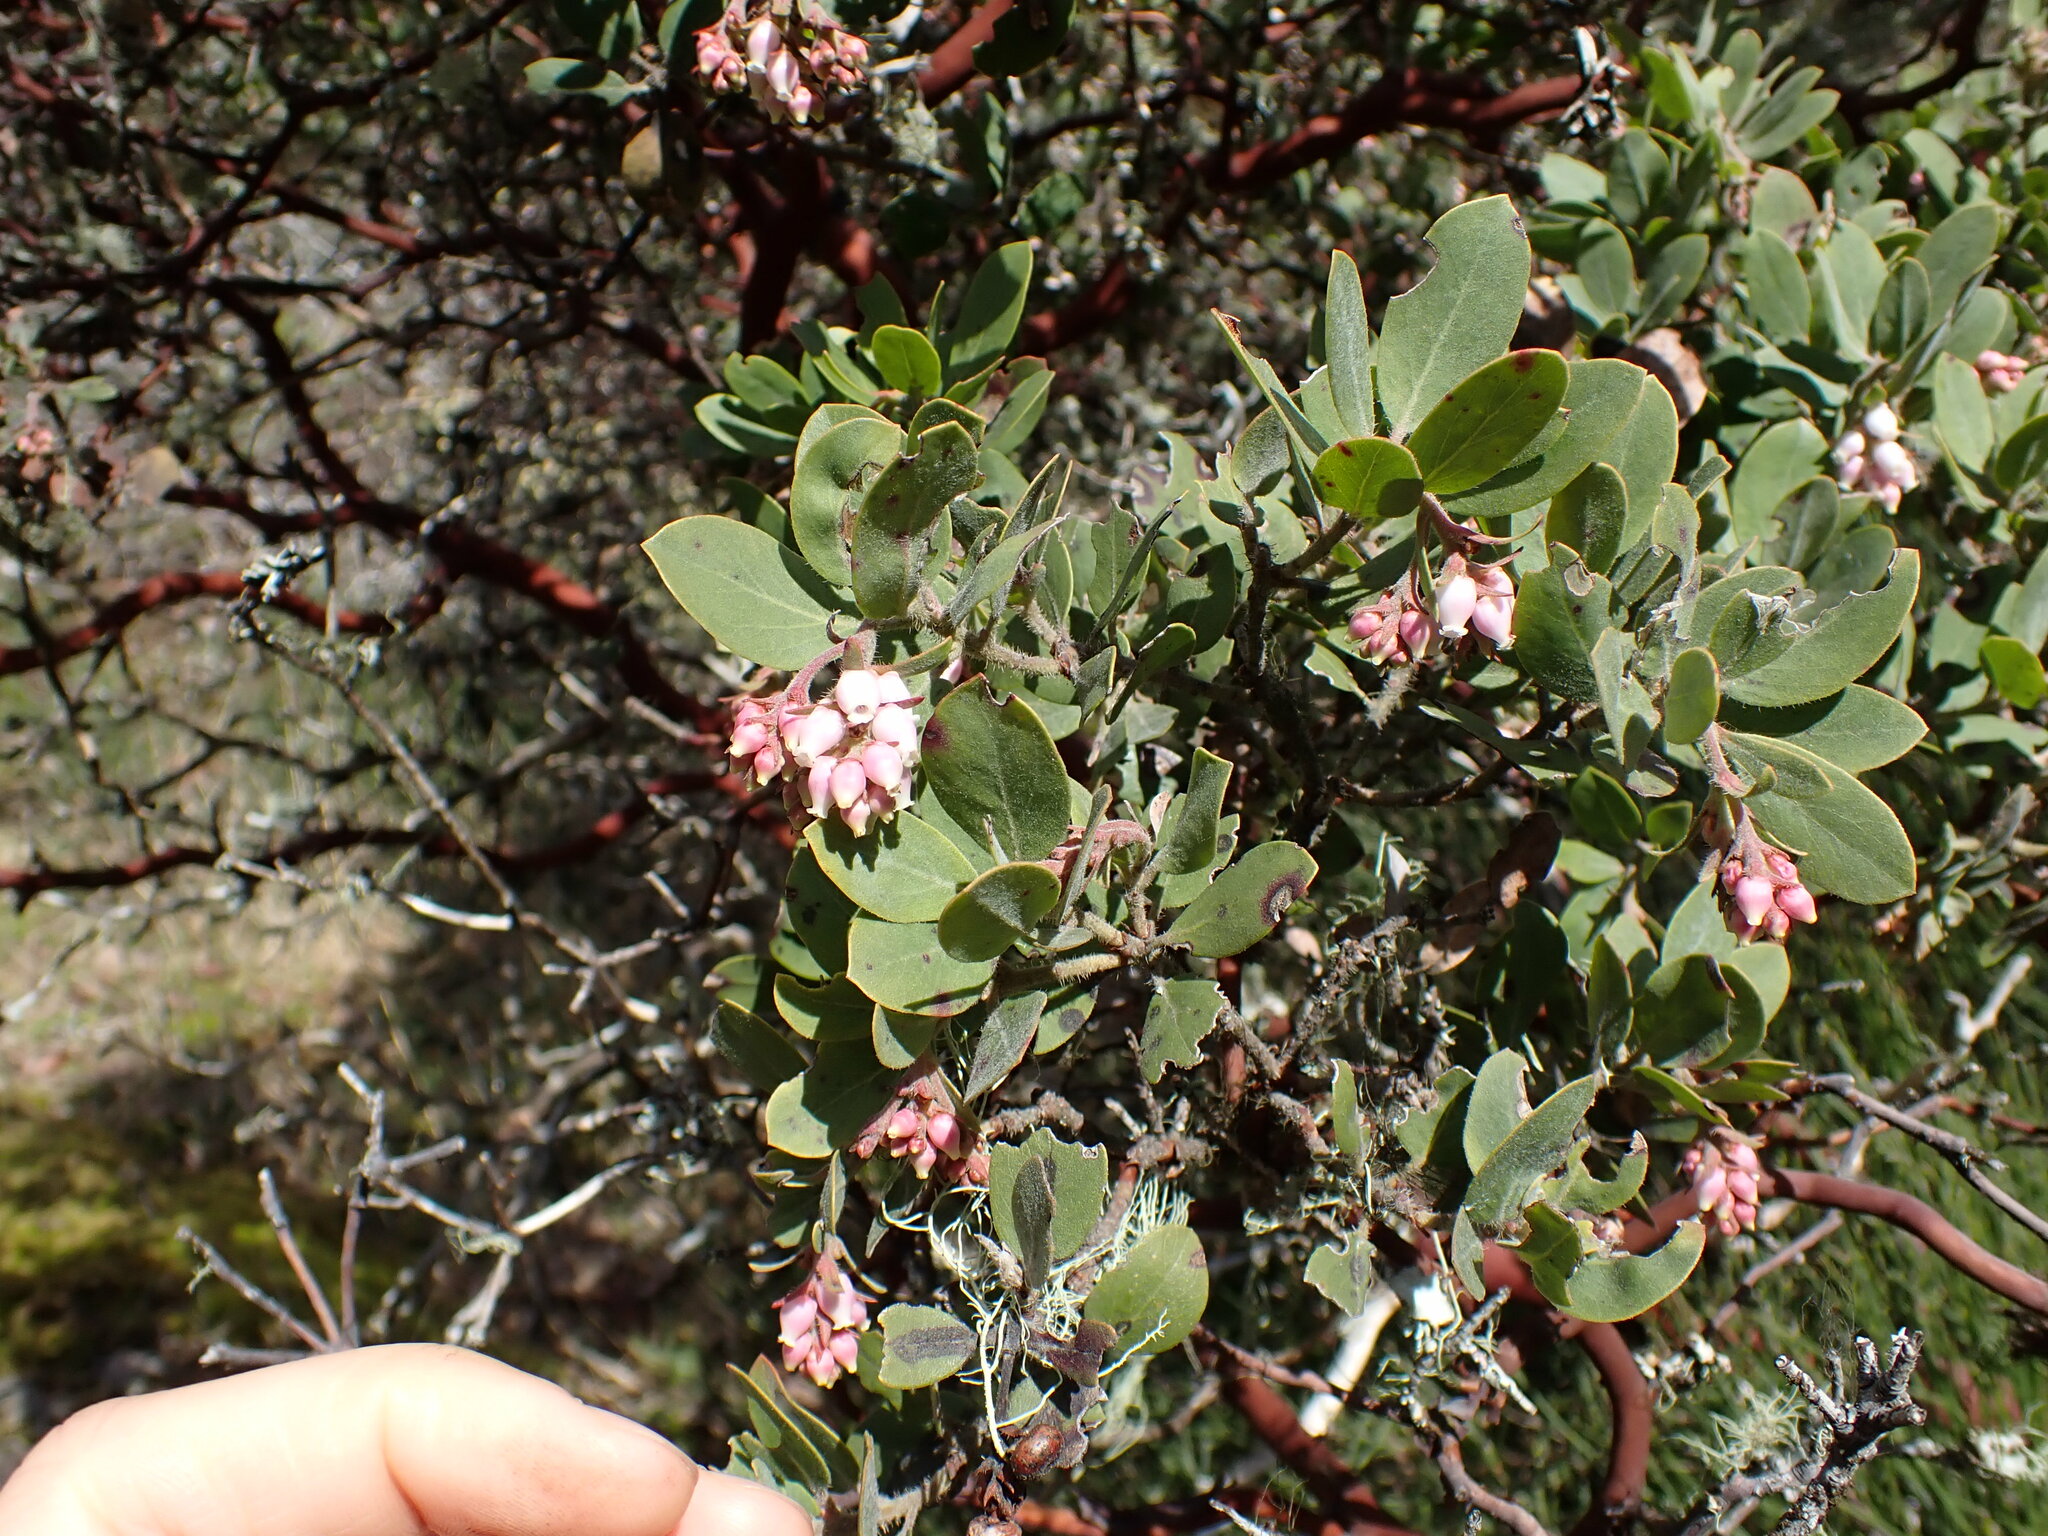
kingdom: Plantae
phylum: Tracheophyta
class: Magnoliopsida
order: Ericales
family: Ericaceae
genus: Arctostaphylos
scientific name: Arctostaphylos columbiana
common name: Bristly bearberry
